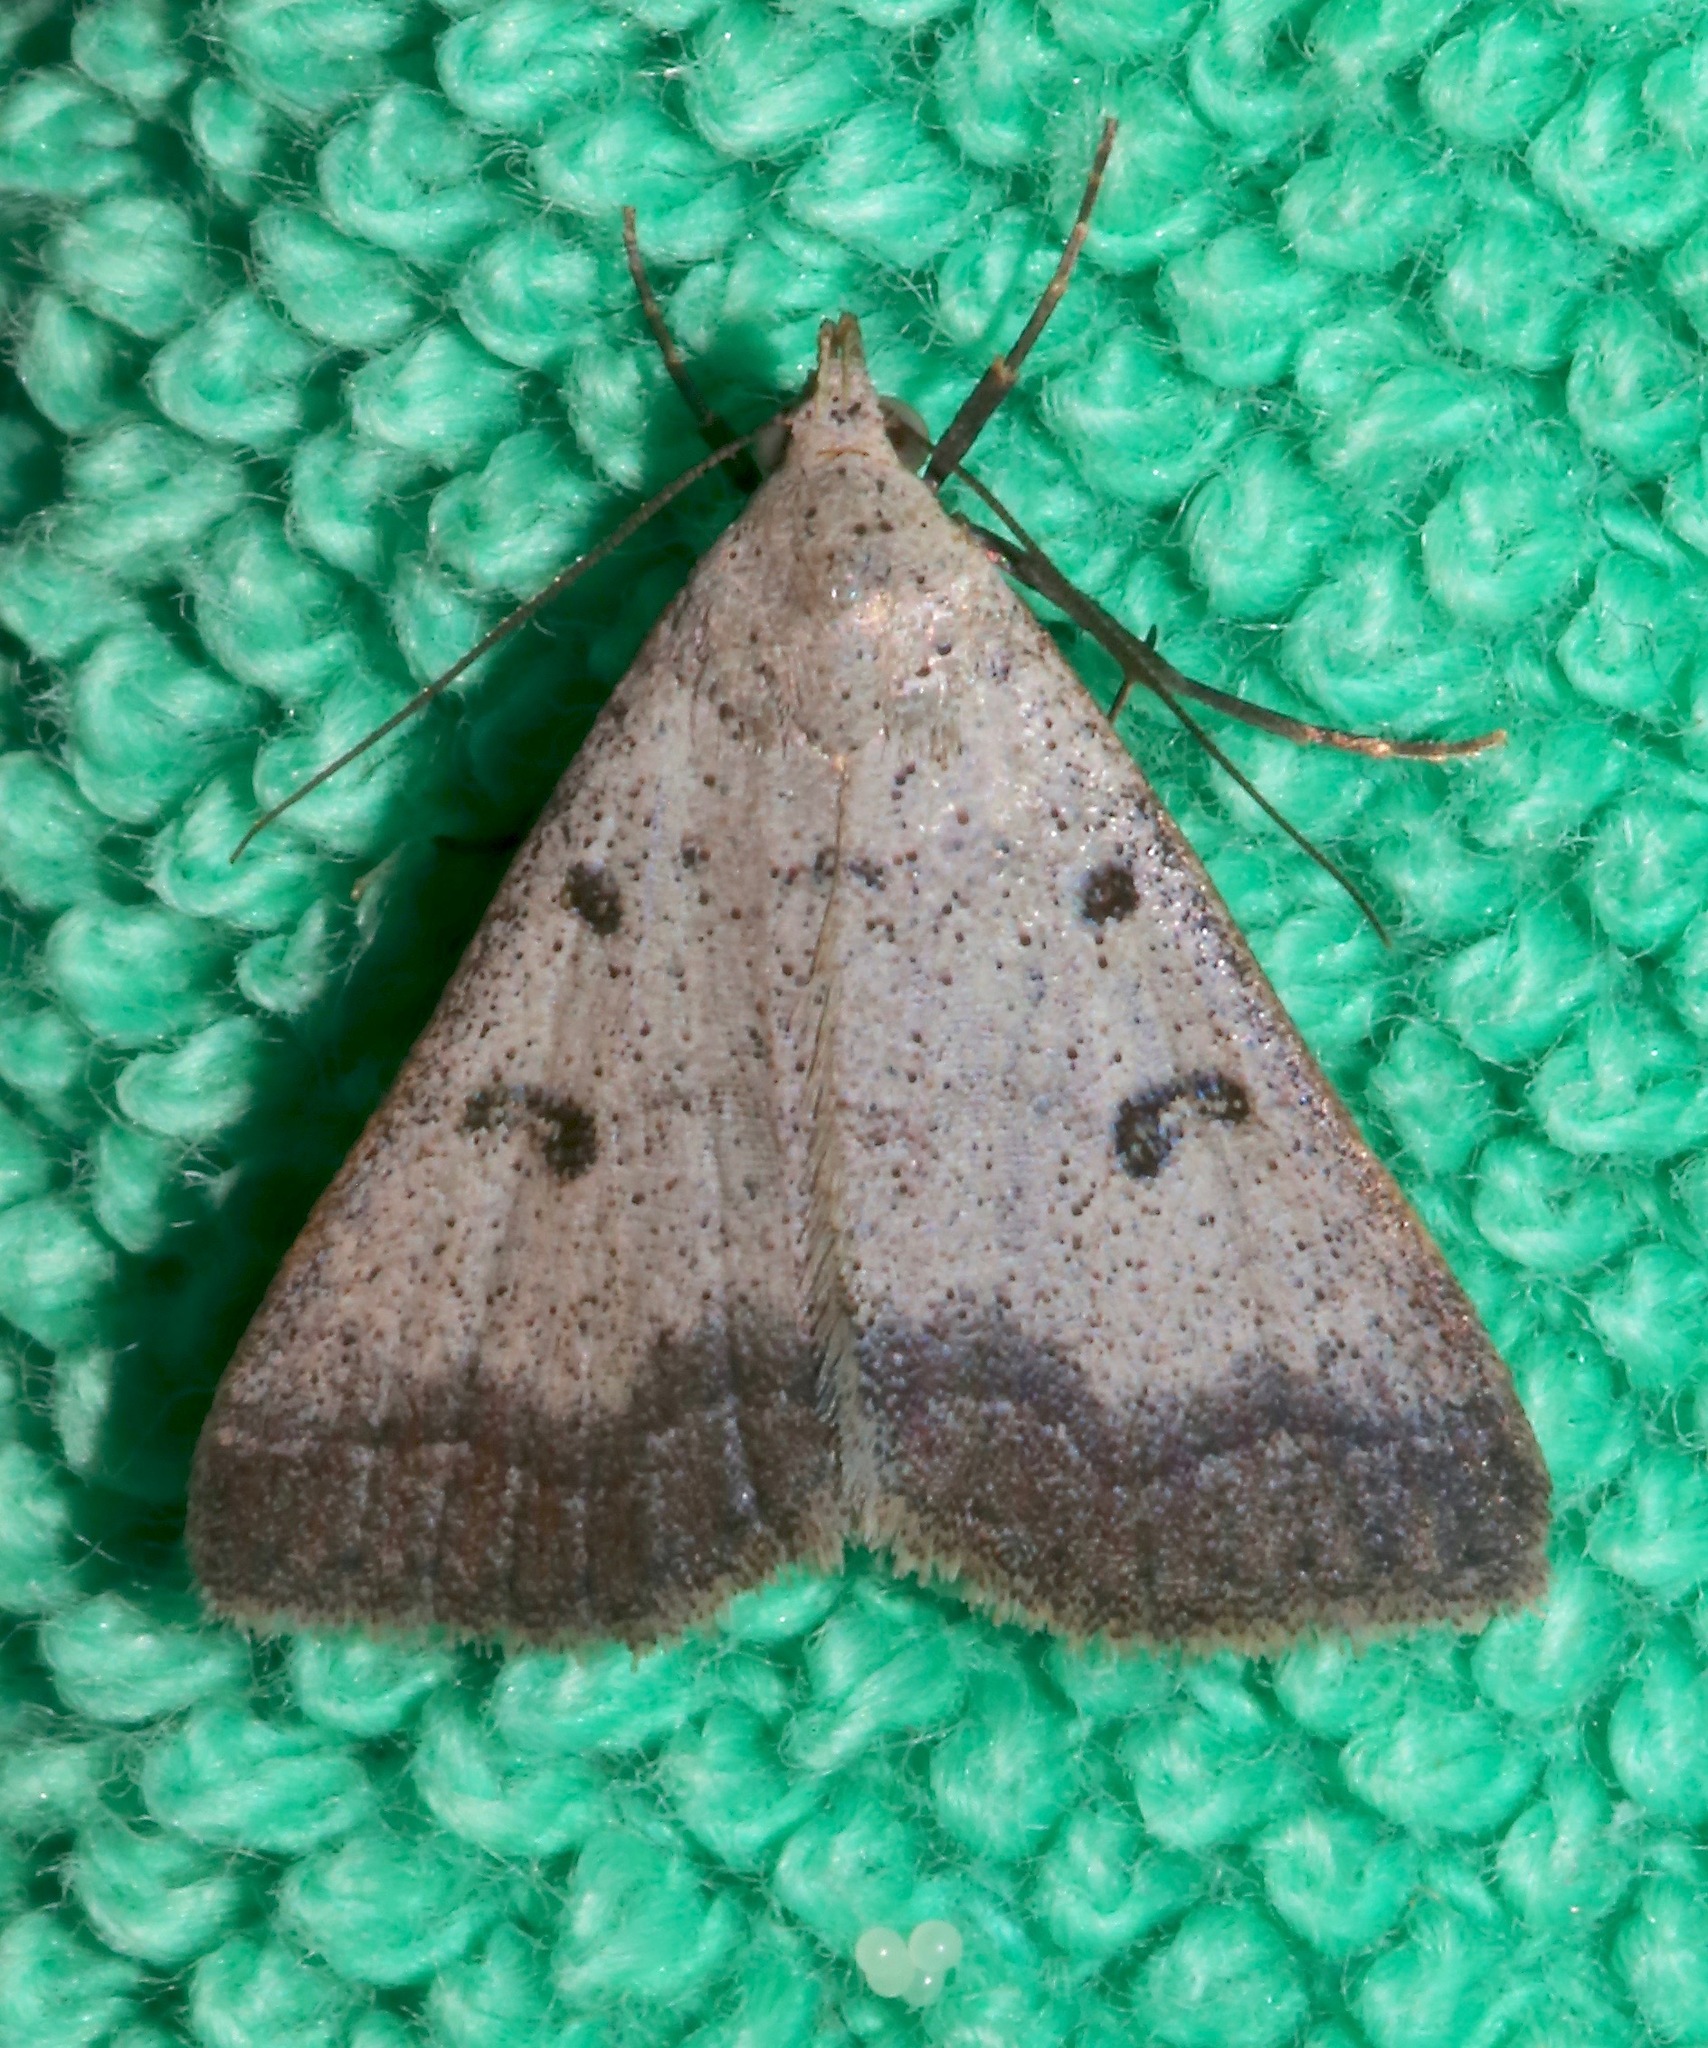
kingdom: Animalia
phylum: Arthropoda
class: Insecta
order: Lepidoptera
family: Erebidae
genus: Bleptina
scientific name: Bleptina inferior
